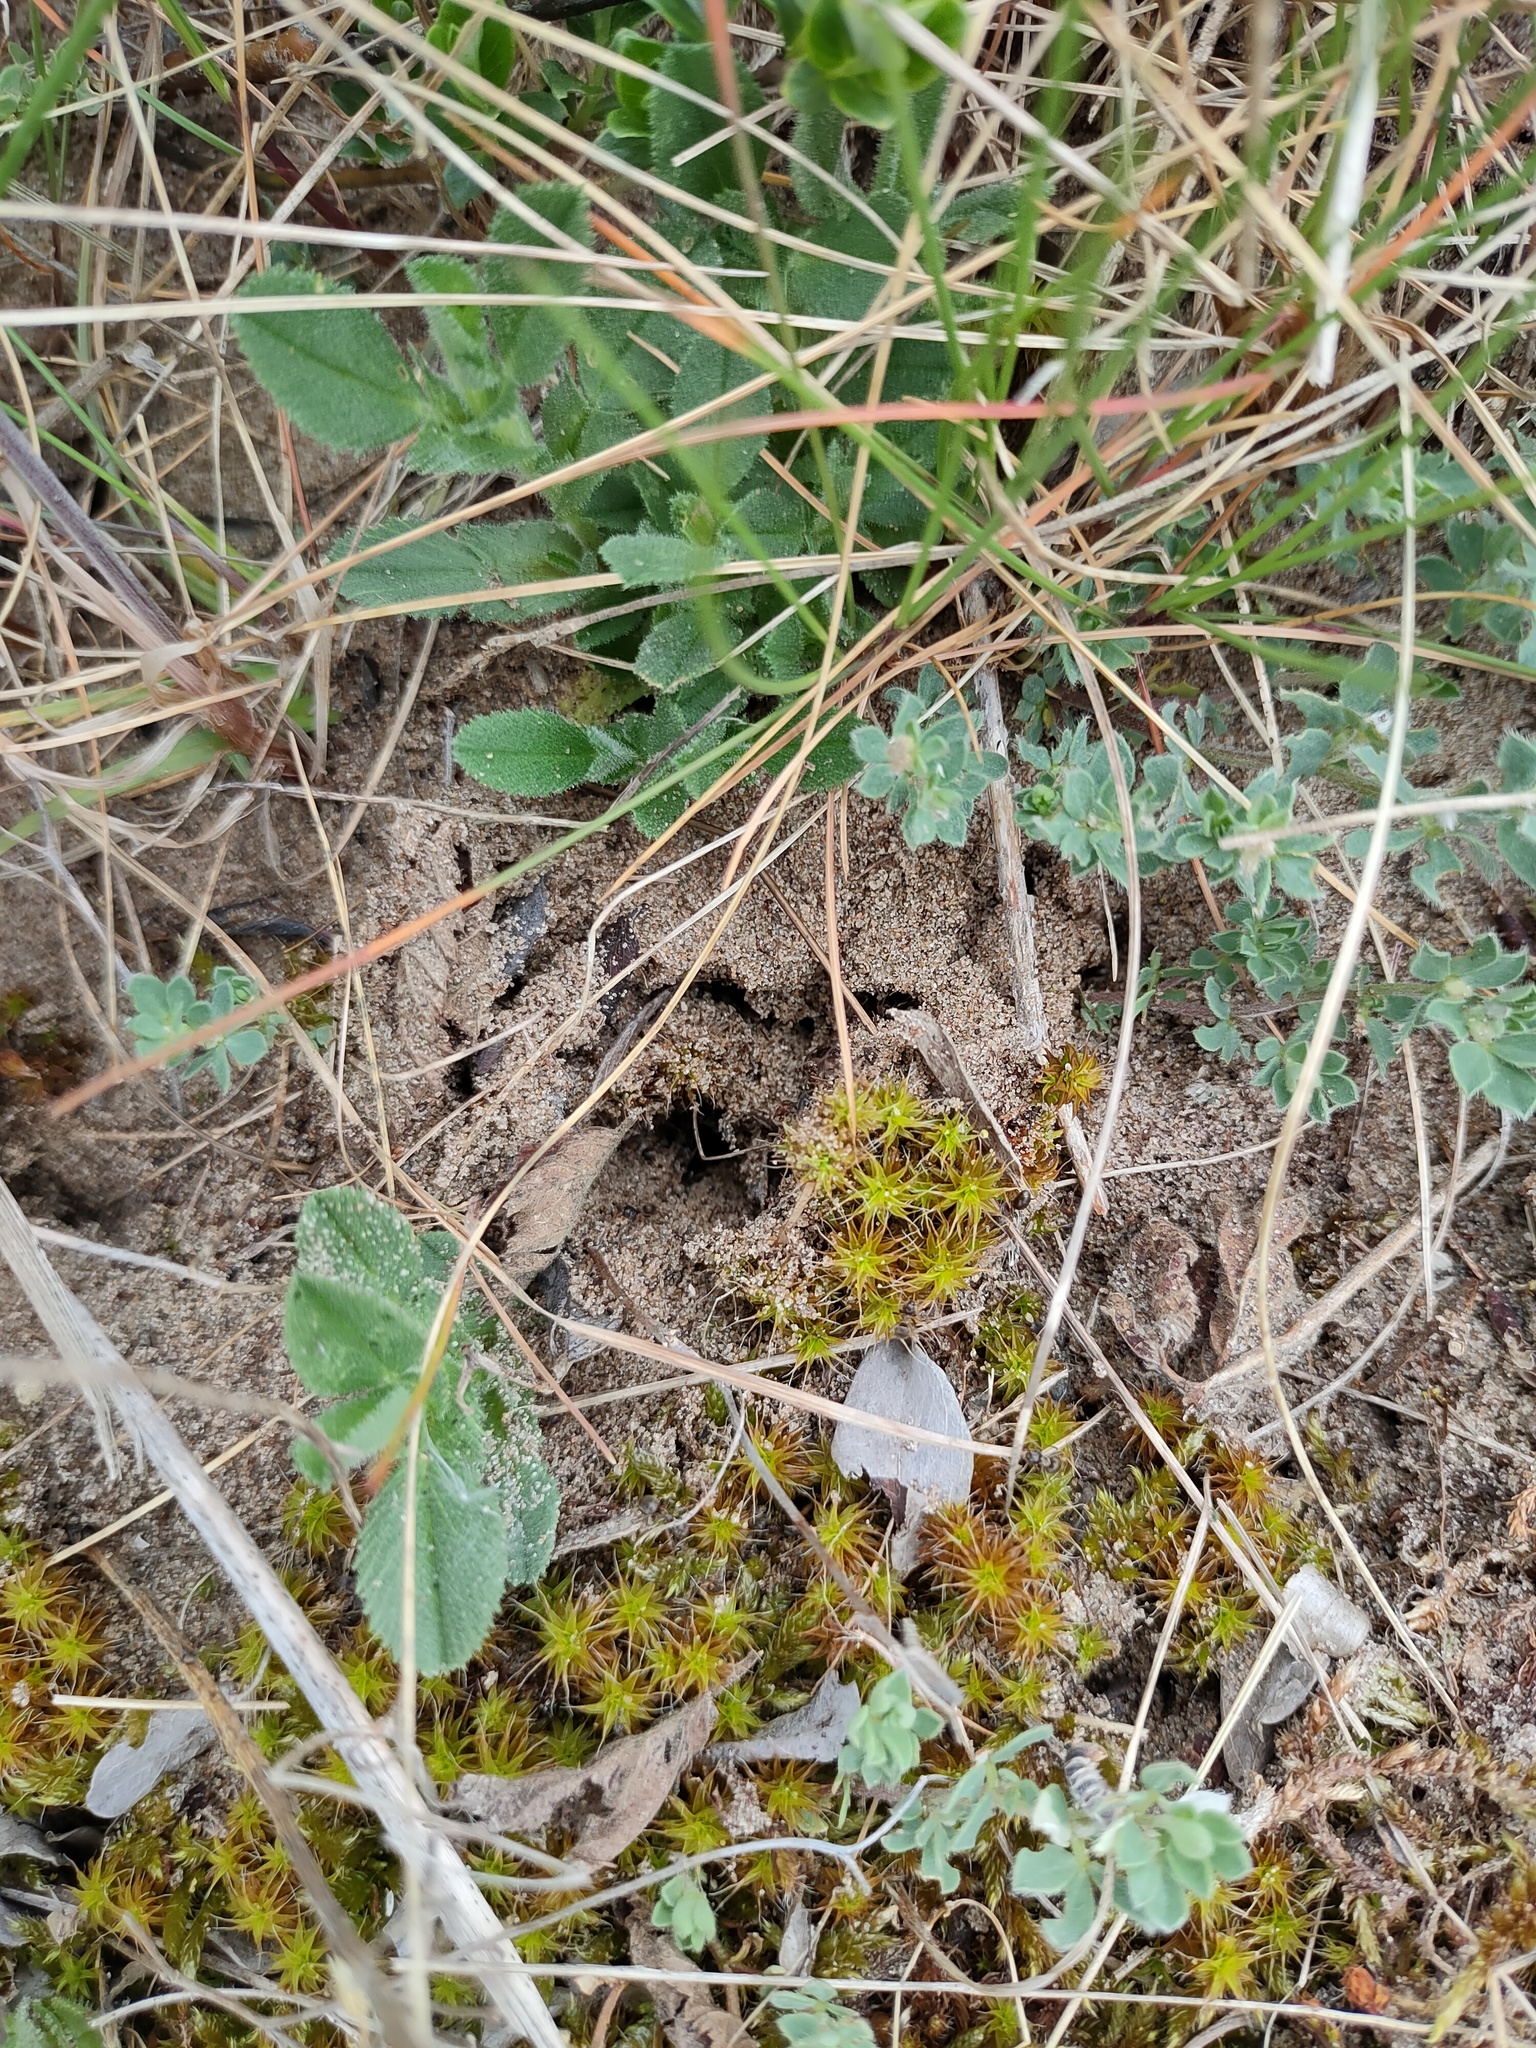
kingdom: Plantae
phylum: Bryophyta
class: Bryopsida
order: Pottiales
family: Pottiaceae
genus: Syntrichia
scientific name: Syntrichia ruralis
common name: Sidewalk screw moss
